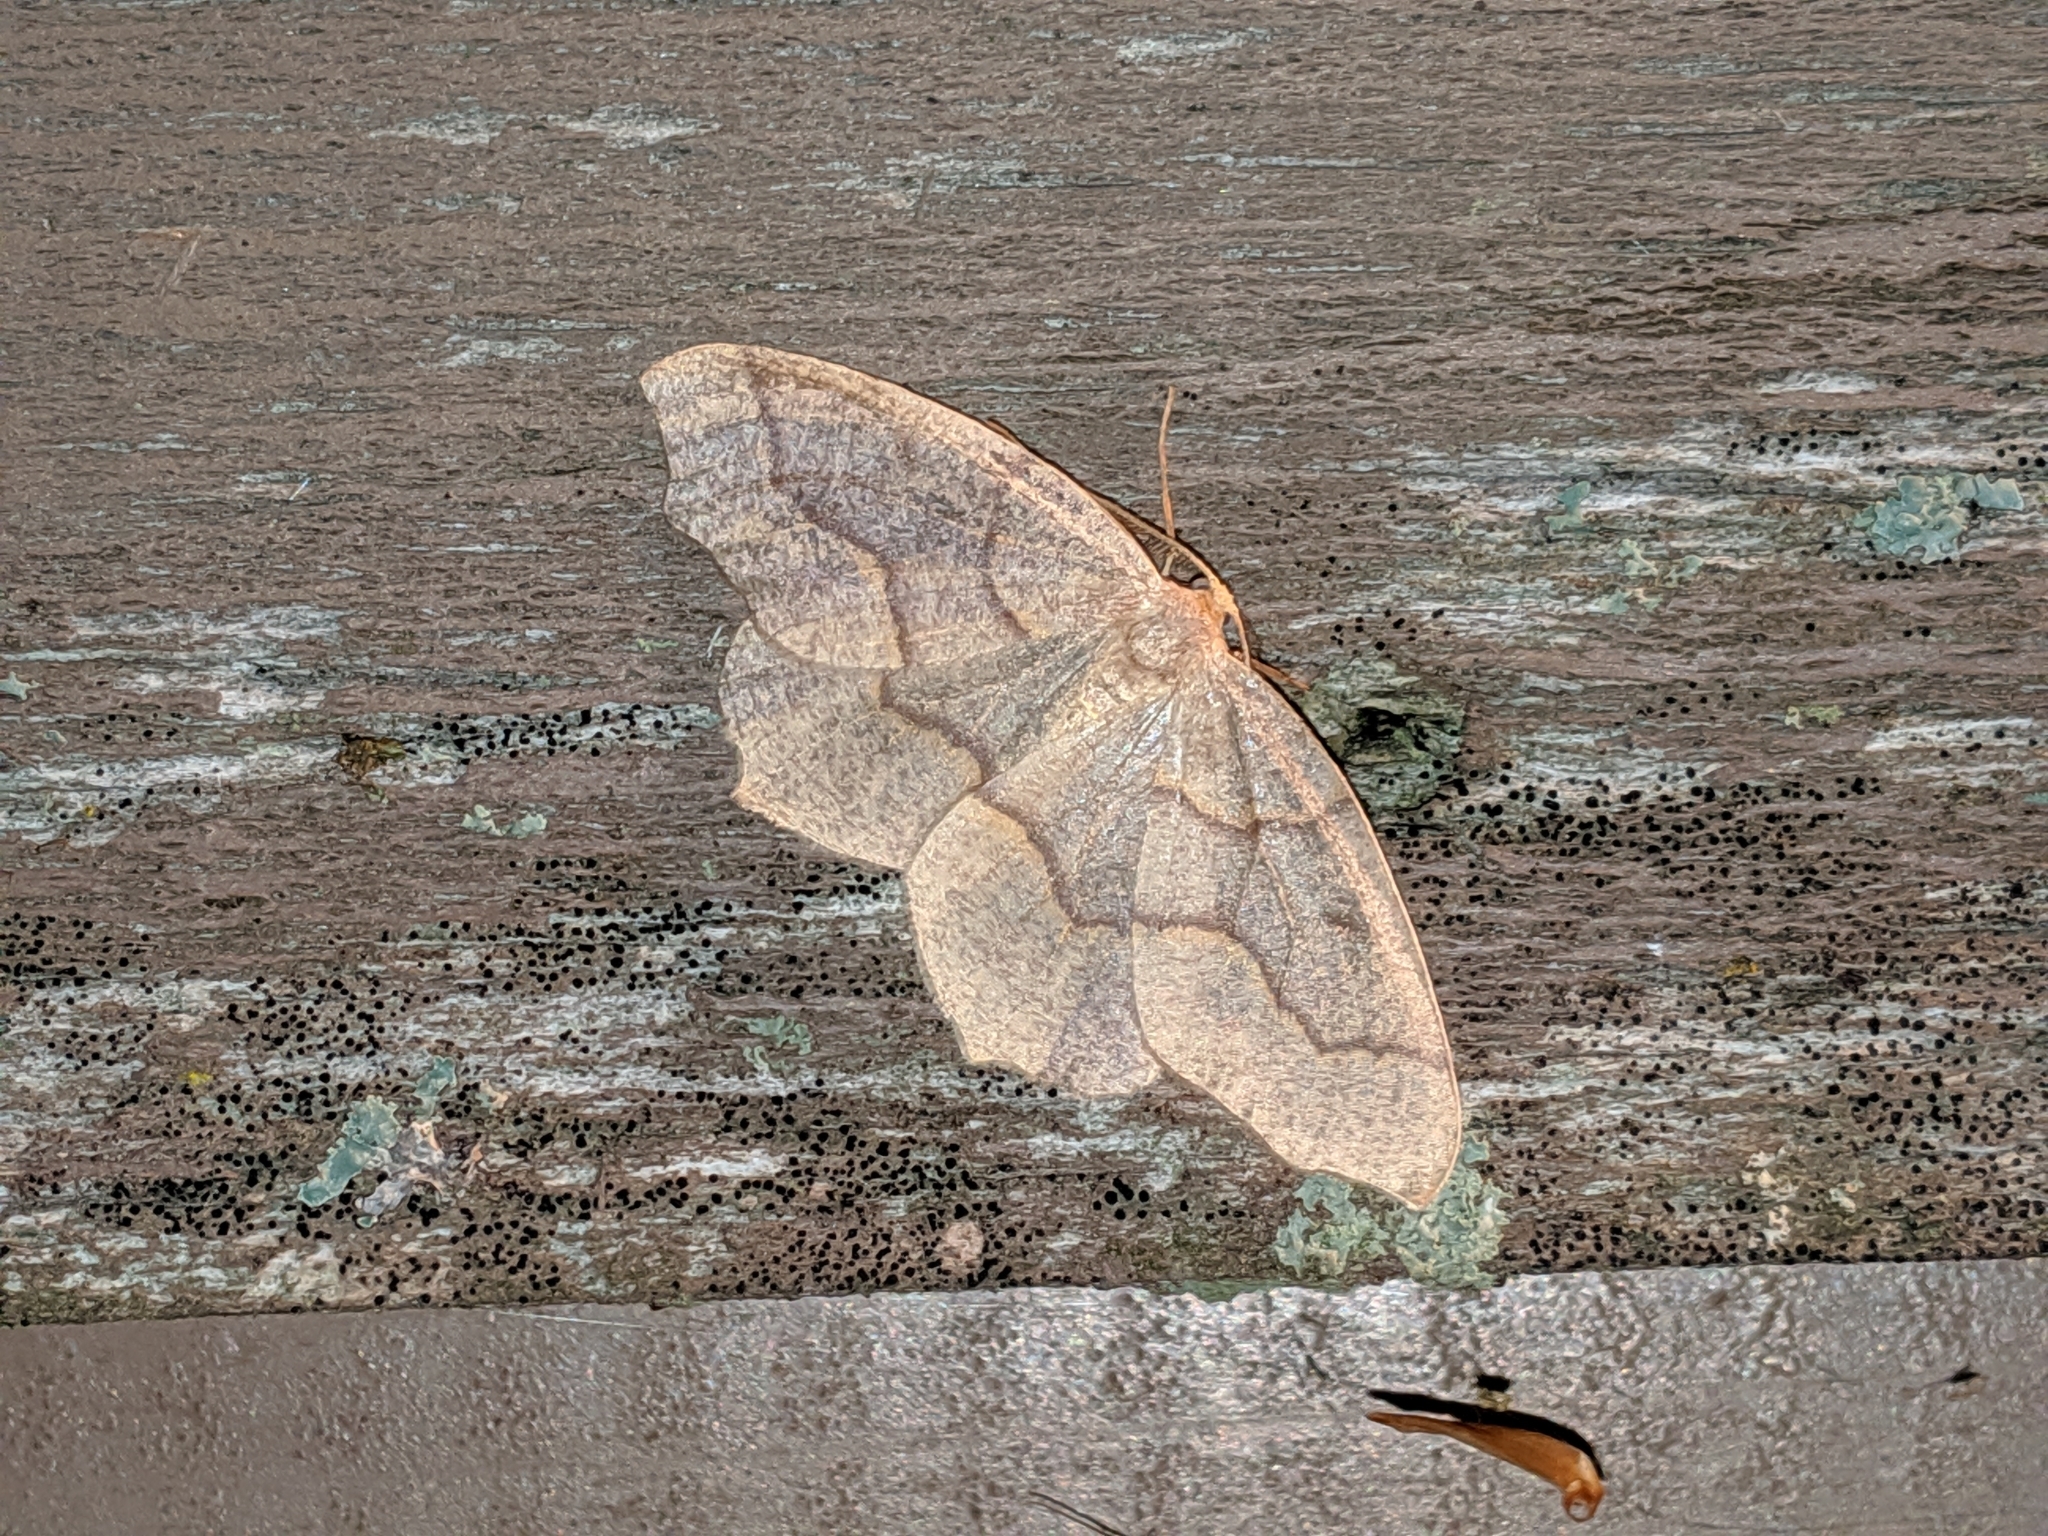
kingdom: Animalia
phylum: Arthropoda
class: Insecta
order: Lepidoptera
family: Geometridae
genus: Lambdina
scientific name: Lambdina fiscellaria
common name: Hemlock looper
